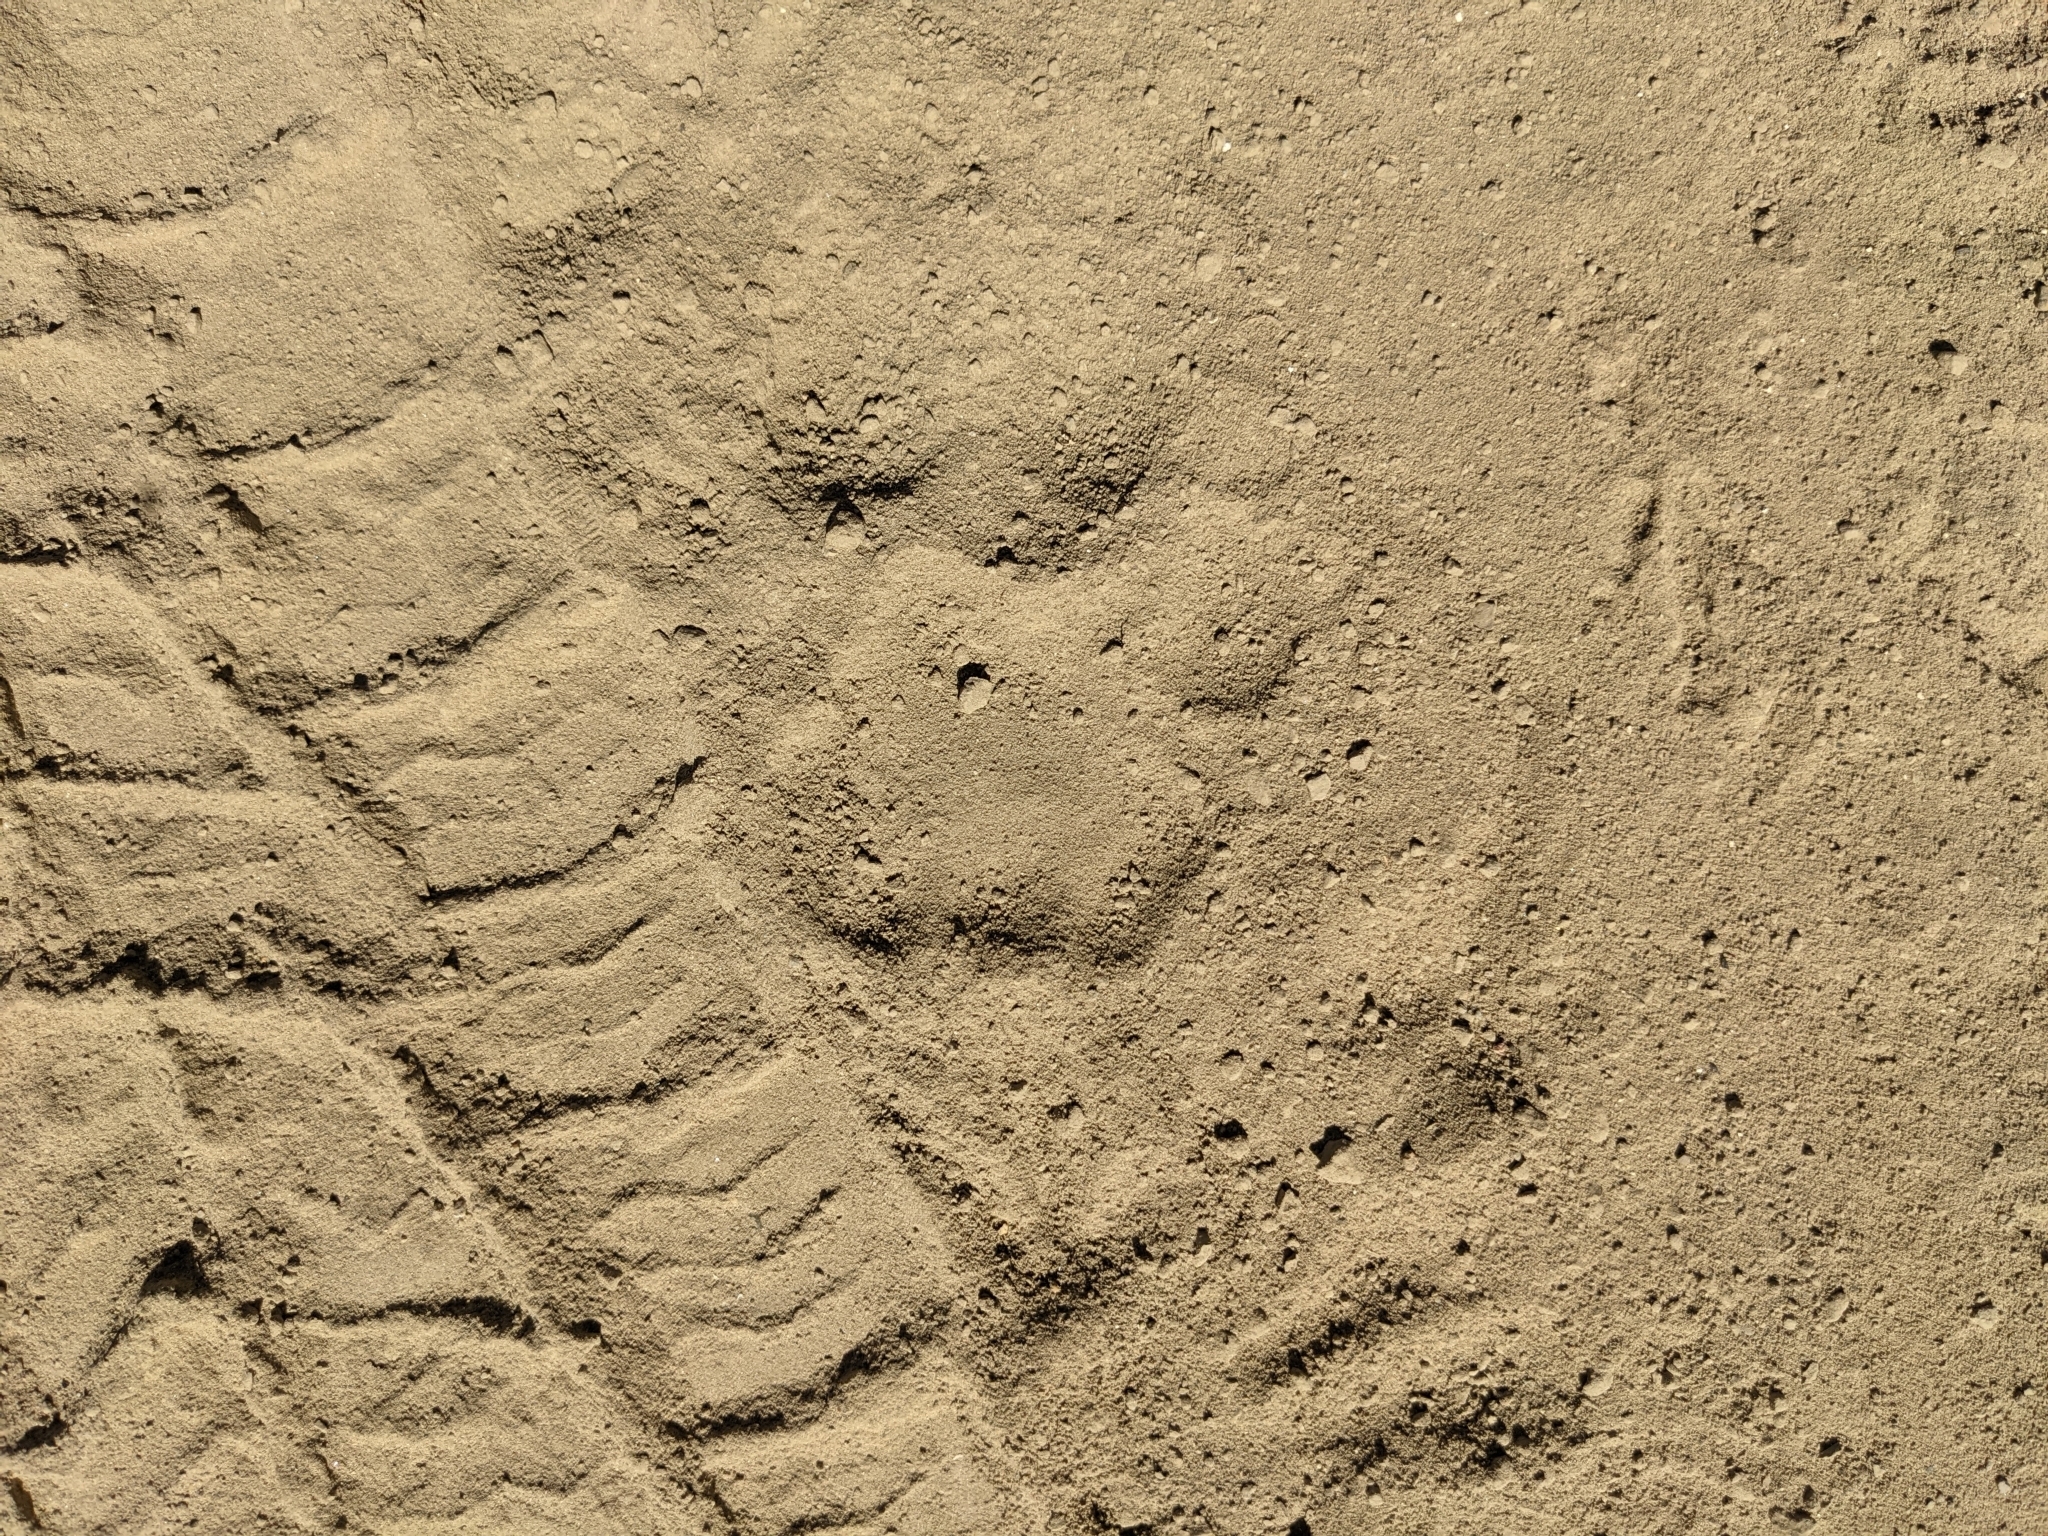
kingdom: Animalia
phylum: Chordata
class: Mammalia
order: Carnivora
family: Felidae
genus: Puma
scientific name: Puma concolor
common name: Puma
